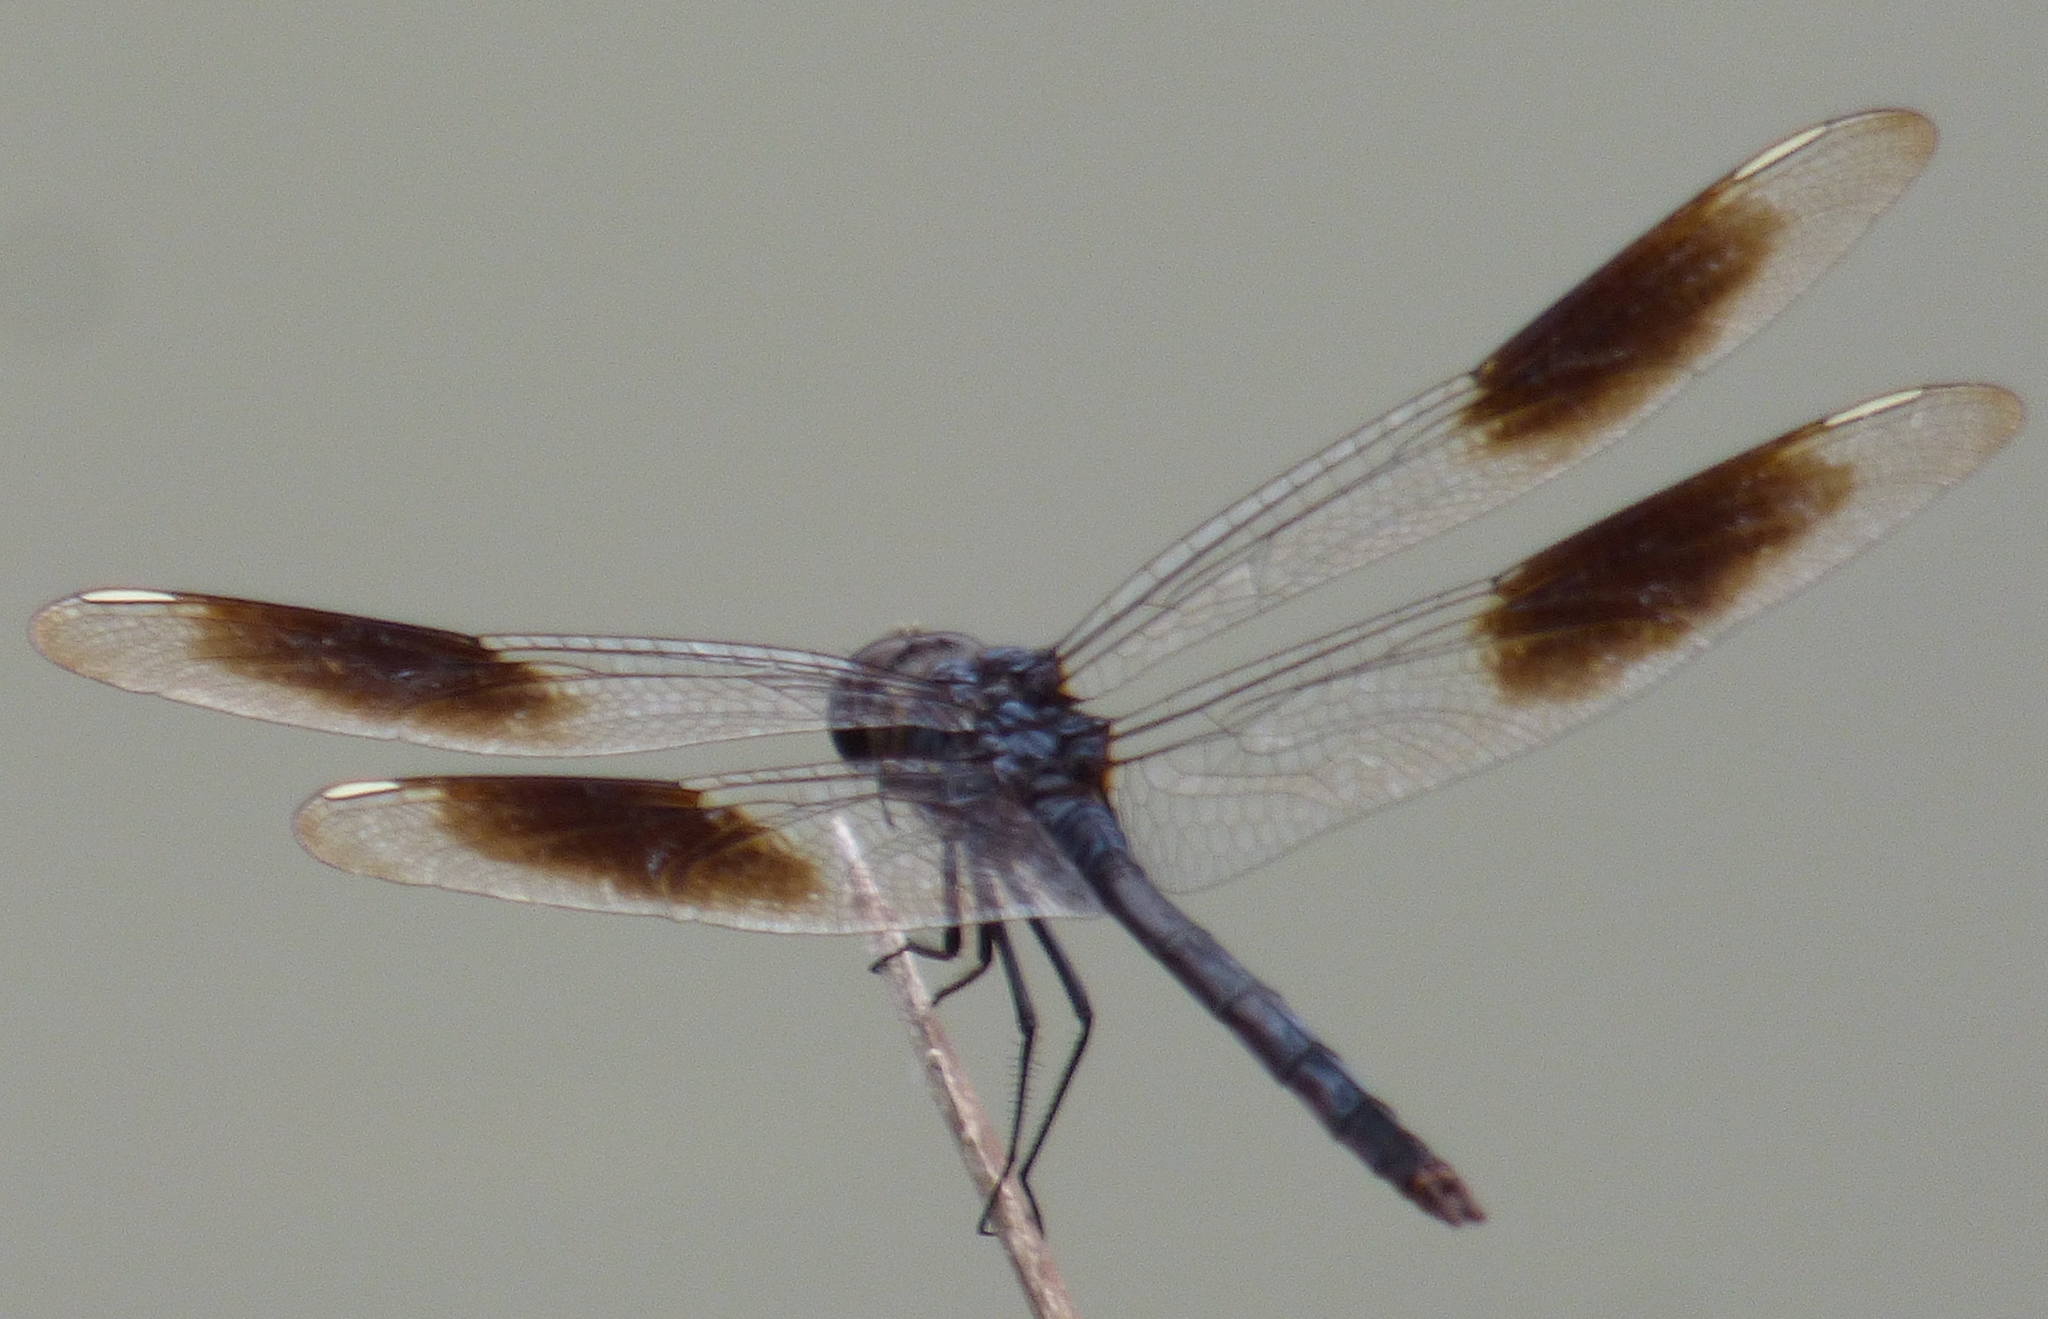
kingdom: Animalia
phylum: Arthropoda
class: Insecta
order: Odonata
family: Libellulidae
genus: Brachymesia
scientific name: Brachymesia gravida
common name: Four-spotted pennant
